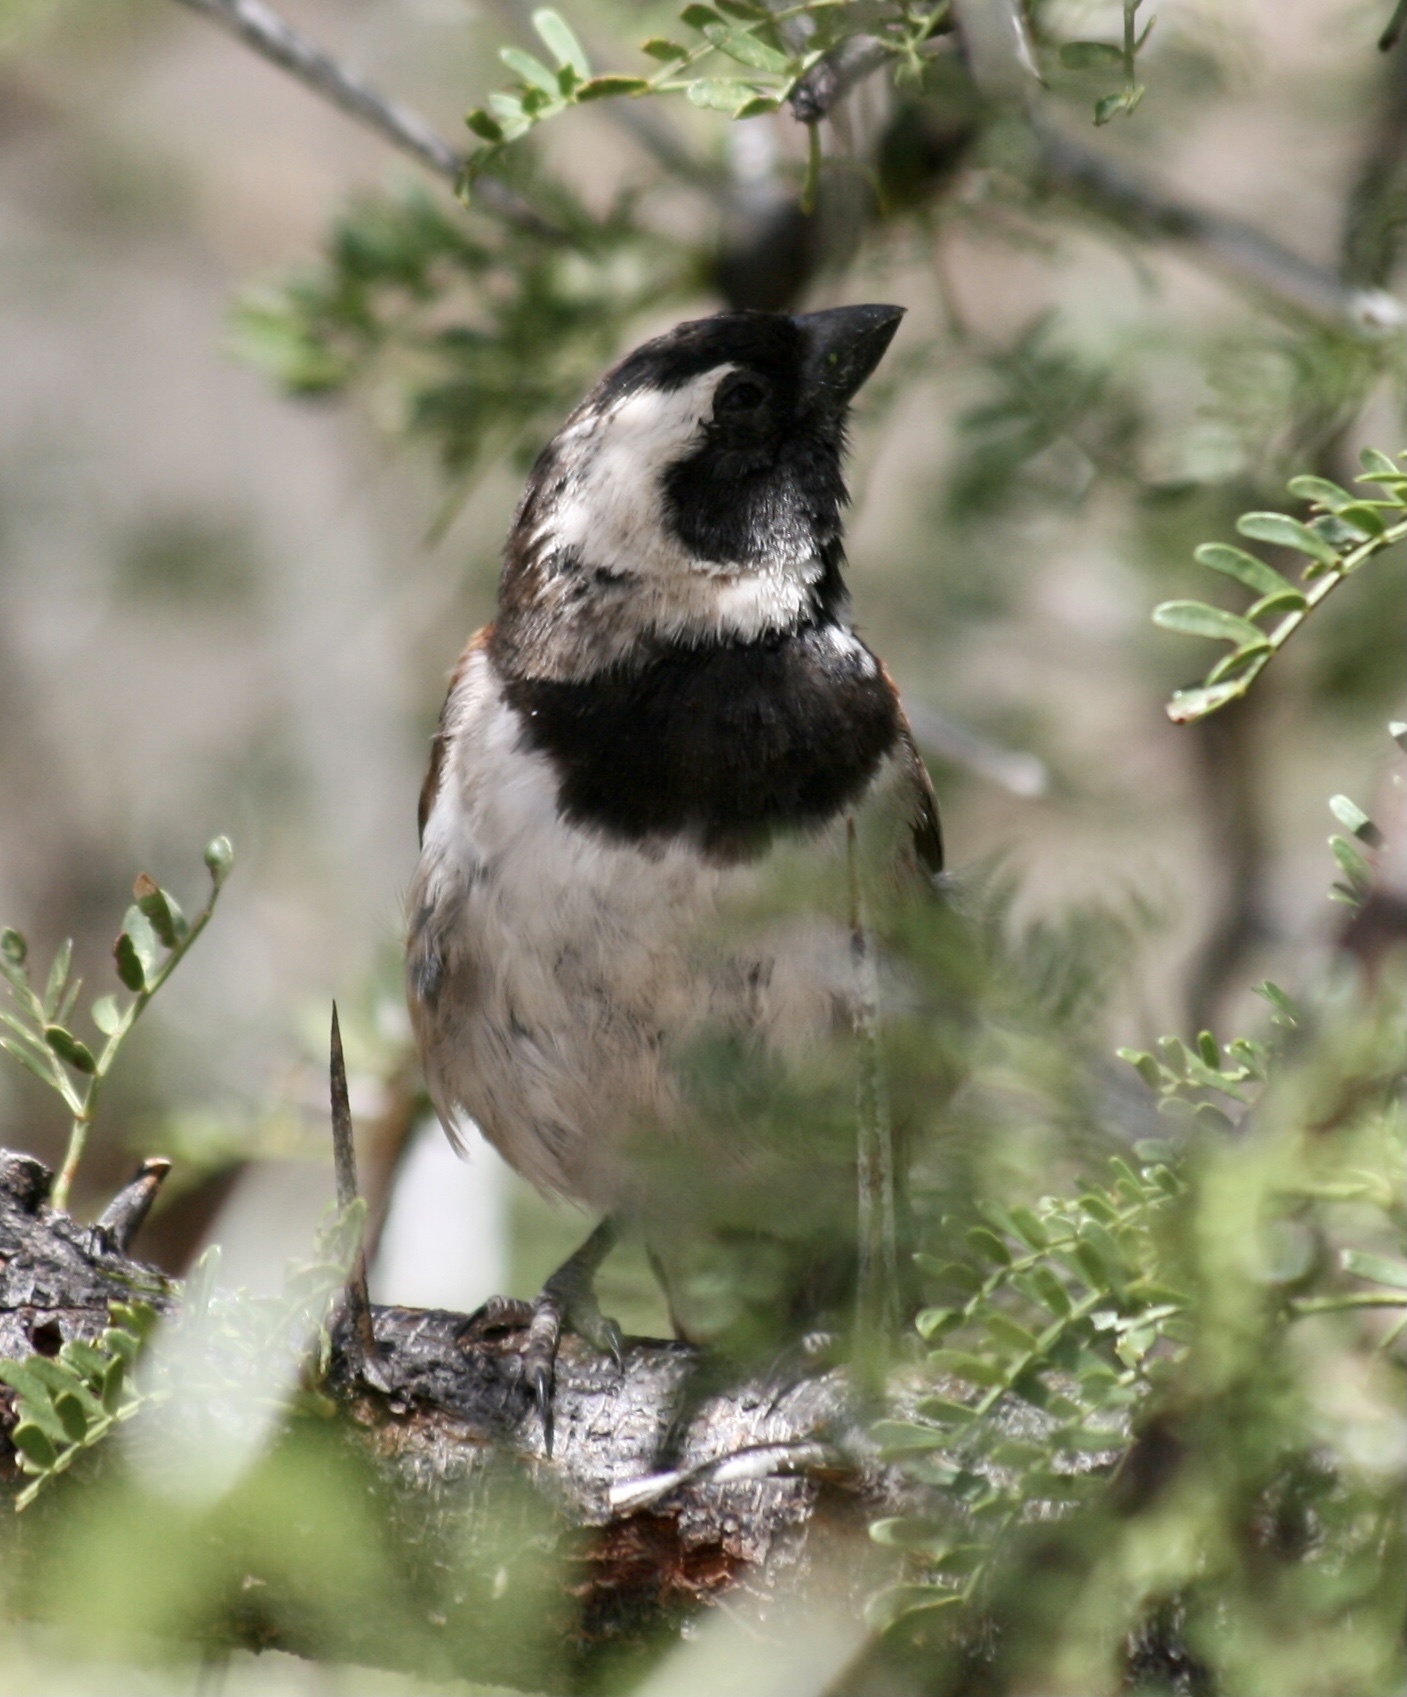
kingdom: Animalia
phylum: Chordata
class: Aves
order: Passeriformes
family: Passeridae
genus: Passer
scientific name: Passer melanurus
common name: Cape sparrow
